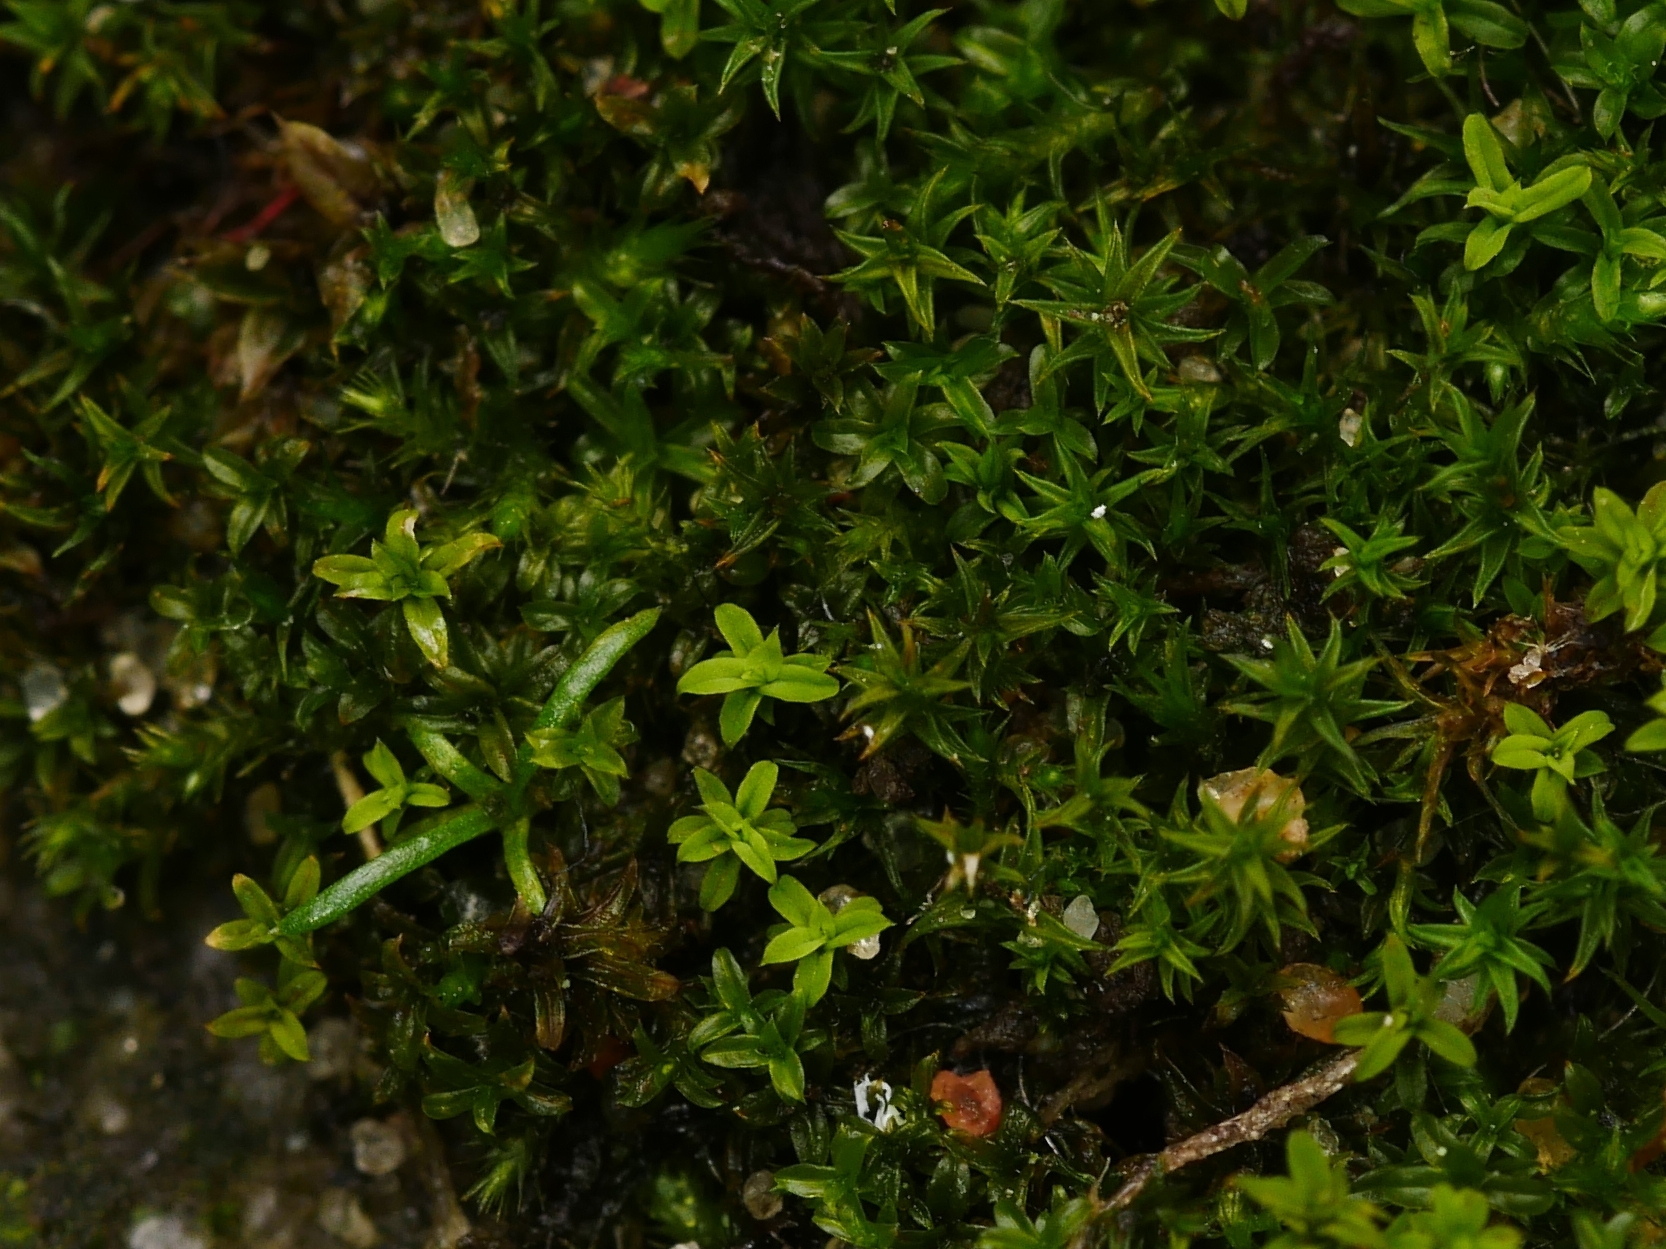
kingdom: Plantae
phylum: Bryophyta
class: Bryopsida
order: Pottiales
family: Pottiaceae
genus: Barbula
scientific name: Barbula unguiculata
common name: Prickly beard moss
